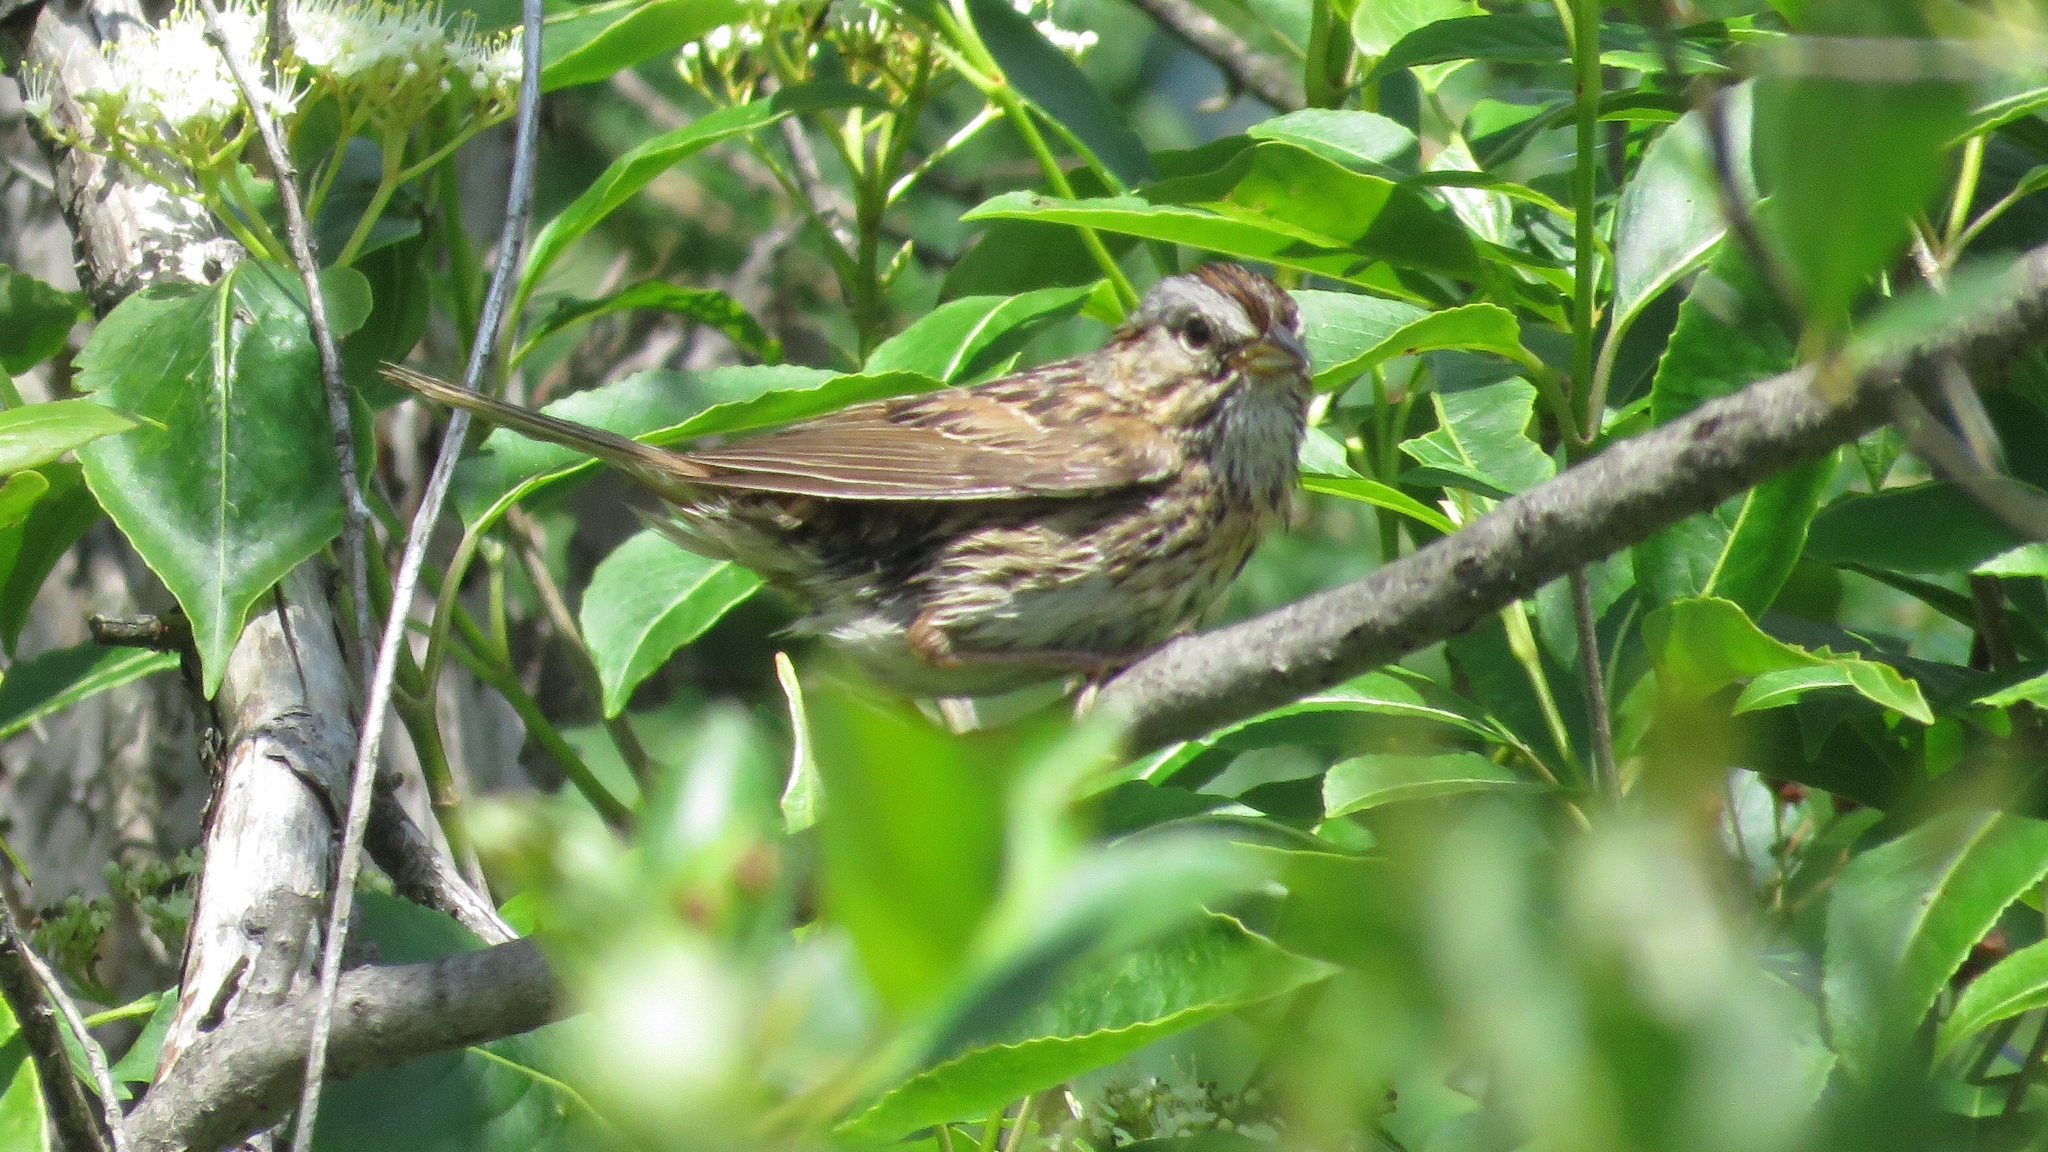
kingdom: Animalia
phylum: Chordata
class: Aves
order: Passeriformes
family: Passerellidae
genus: Melospiza
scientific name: Melospiza lincolnii
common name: Lincoln's sparrow
